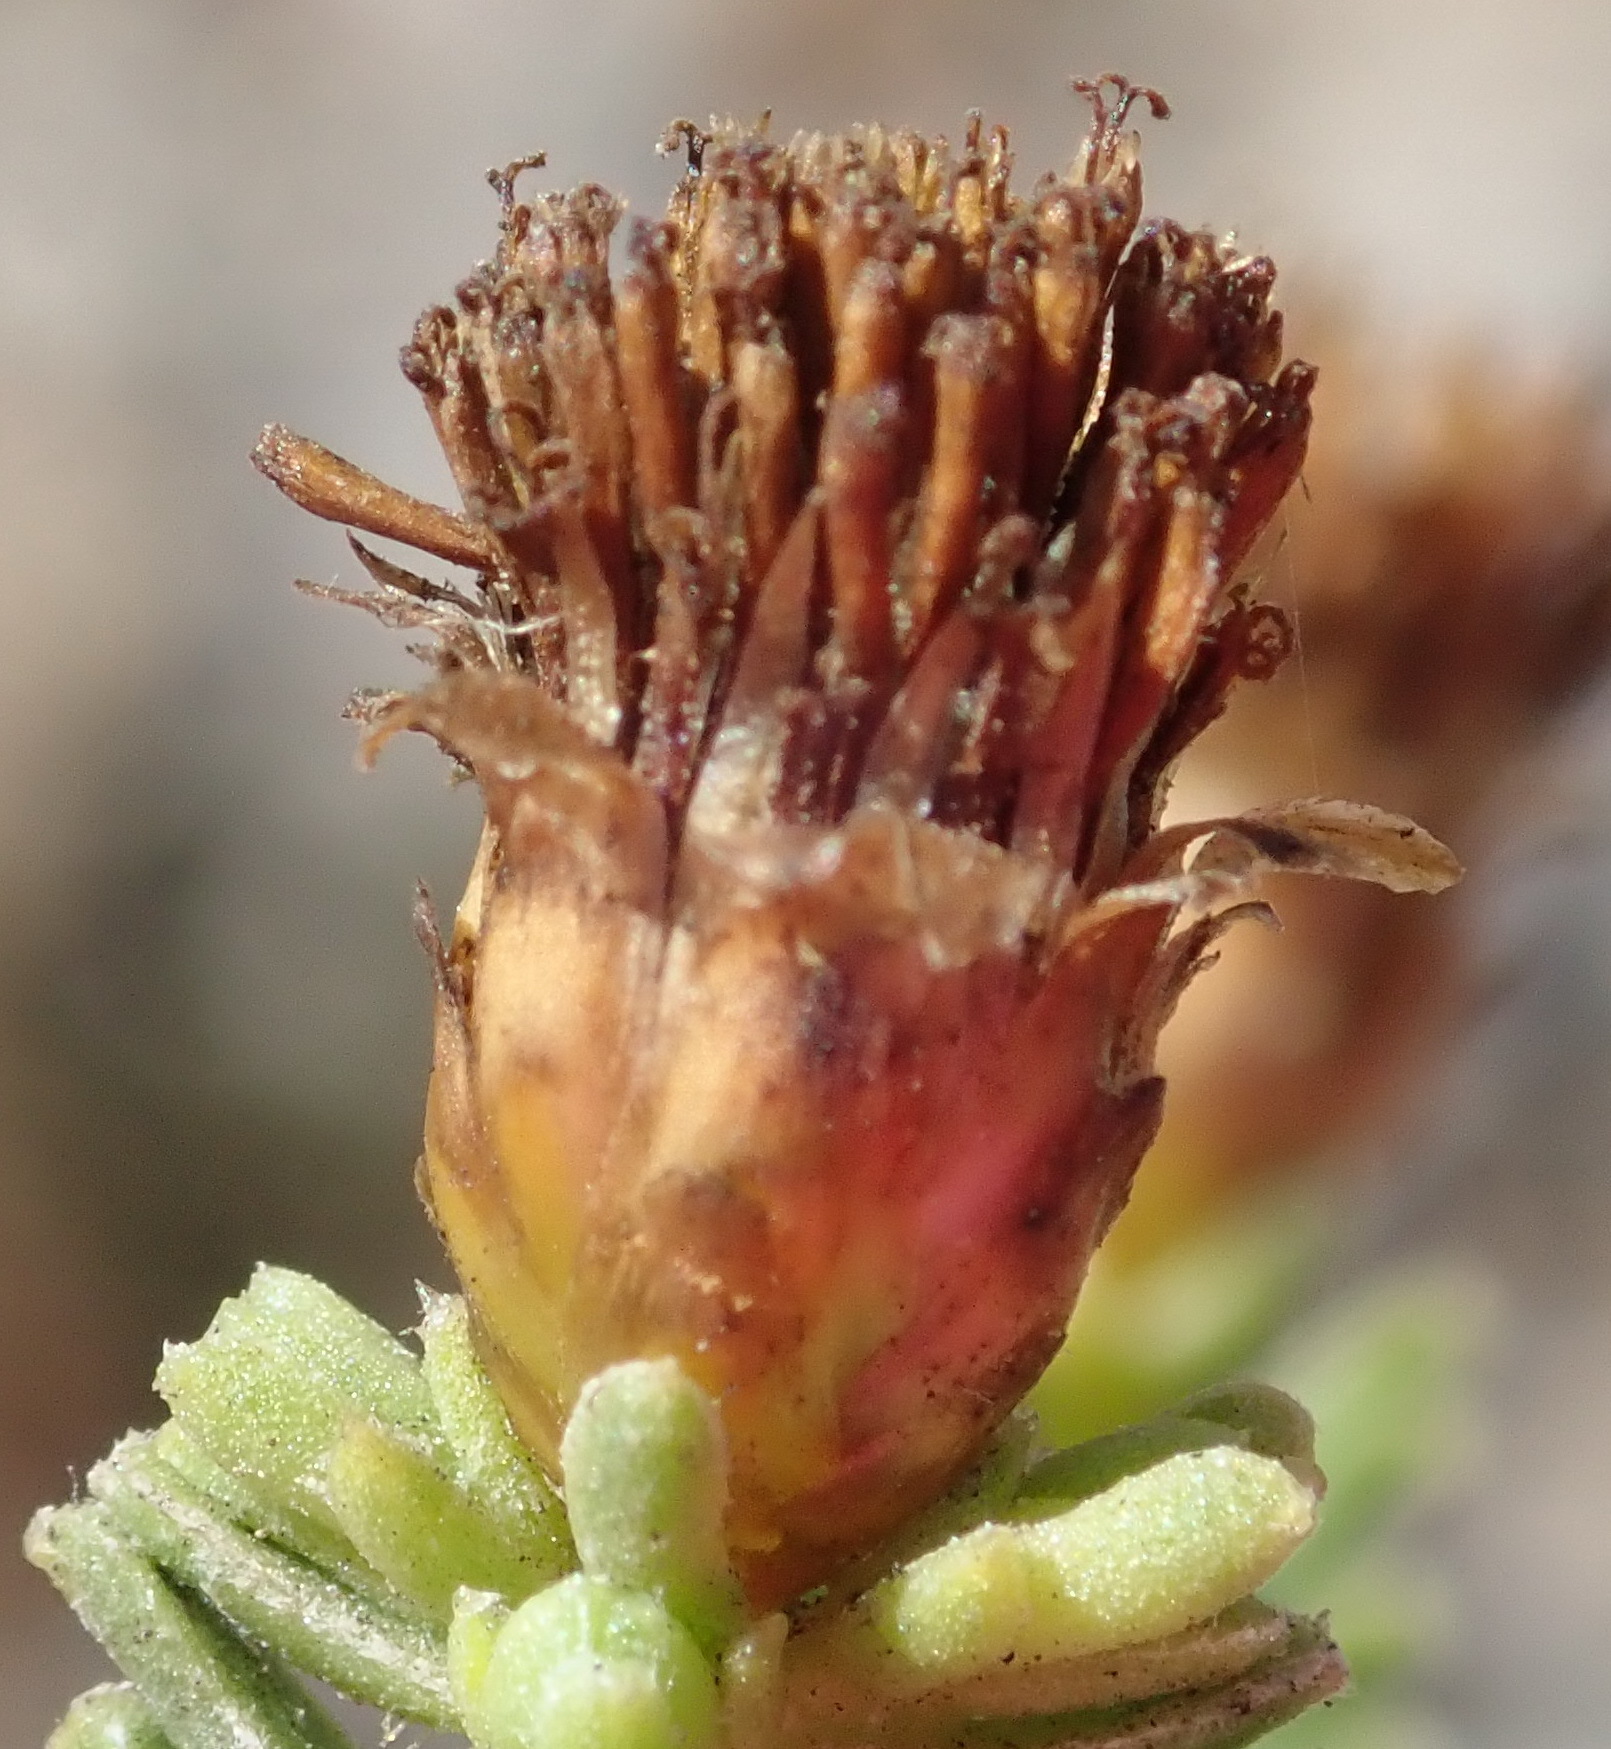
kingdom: Plantae
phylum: Tracheophyta
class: Magnoliopsida
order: Asterales
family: Asteraceae
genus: Oedera
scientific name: Oedera uniflora
